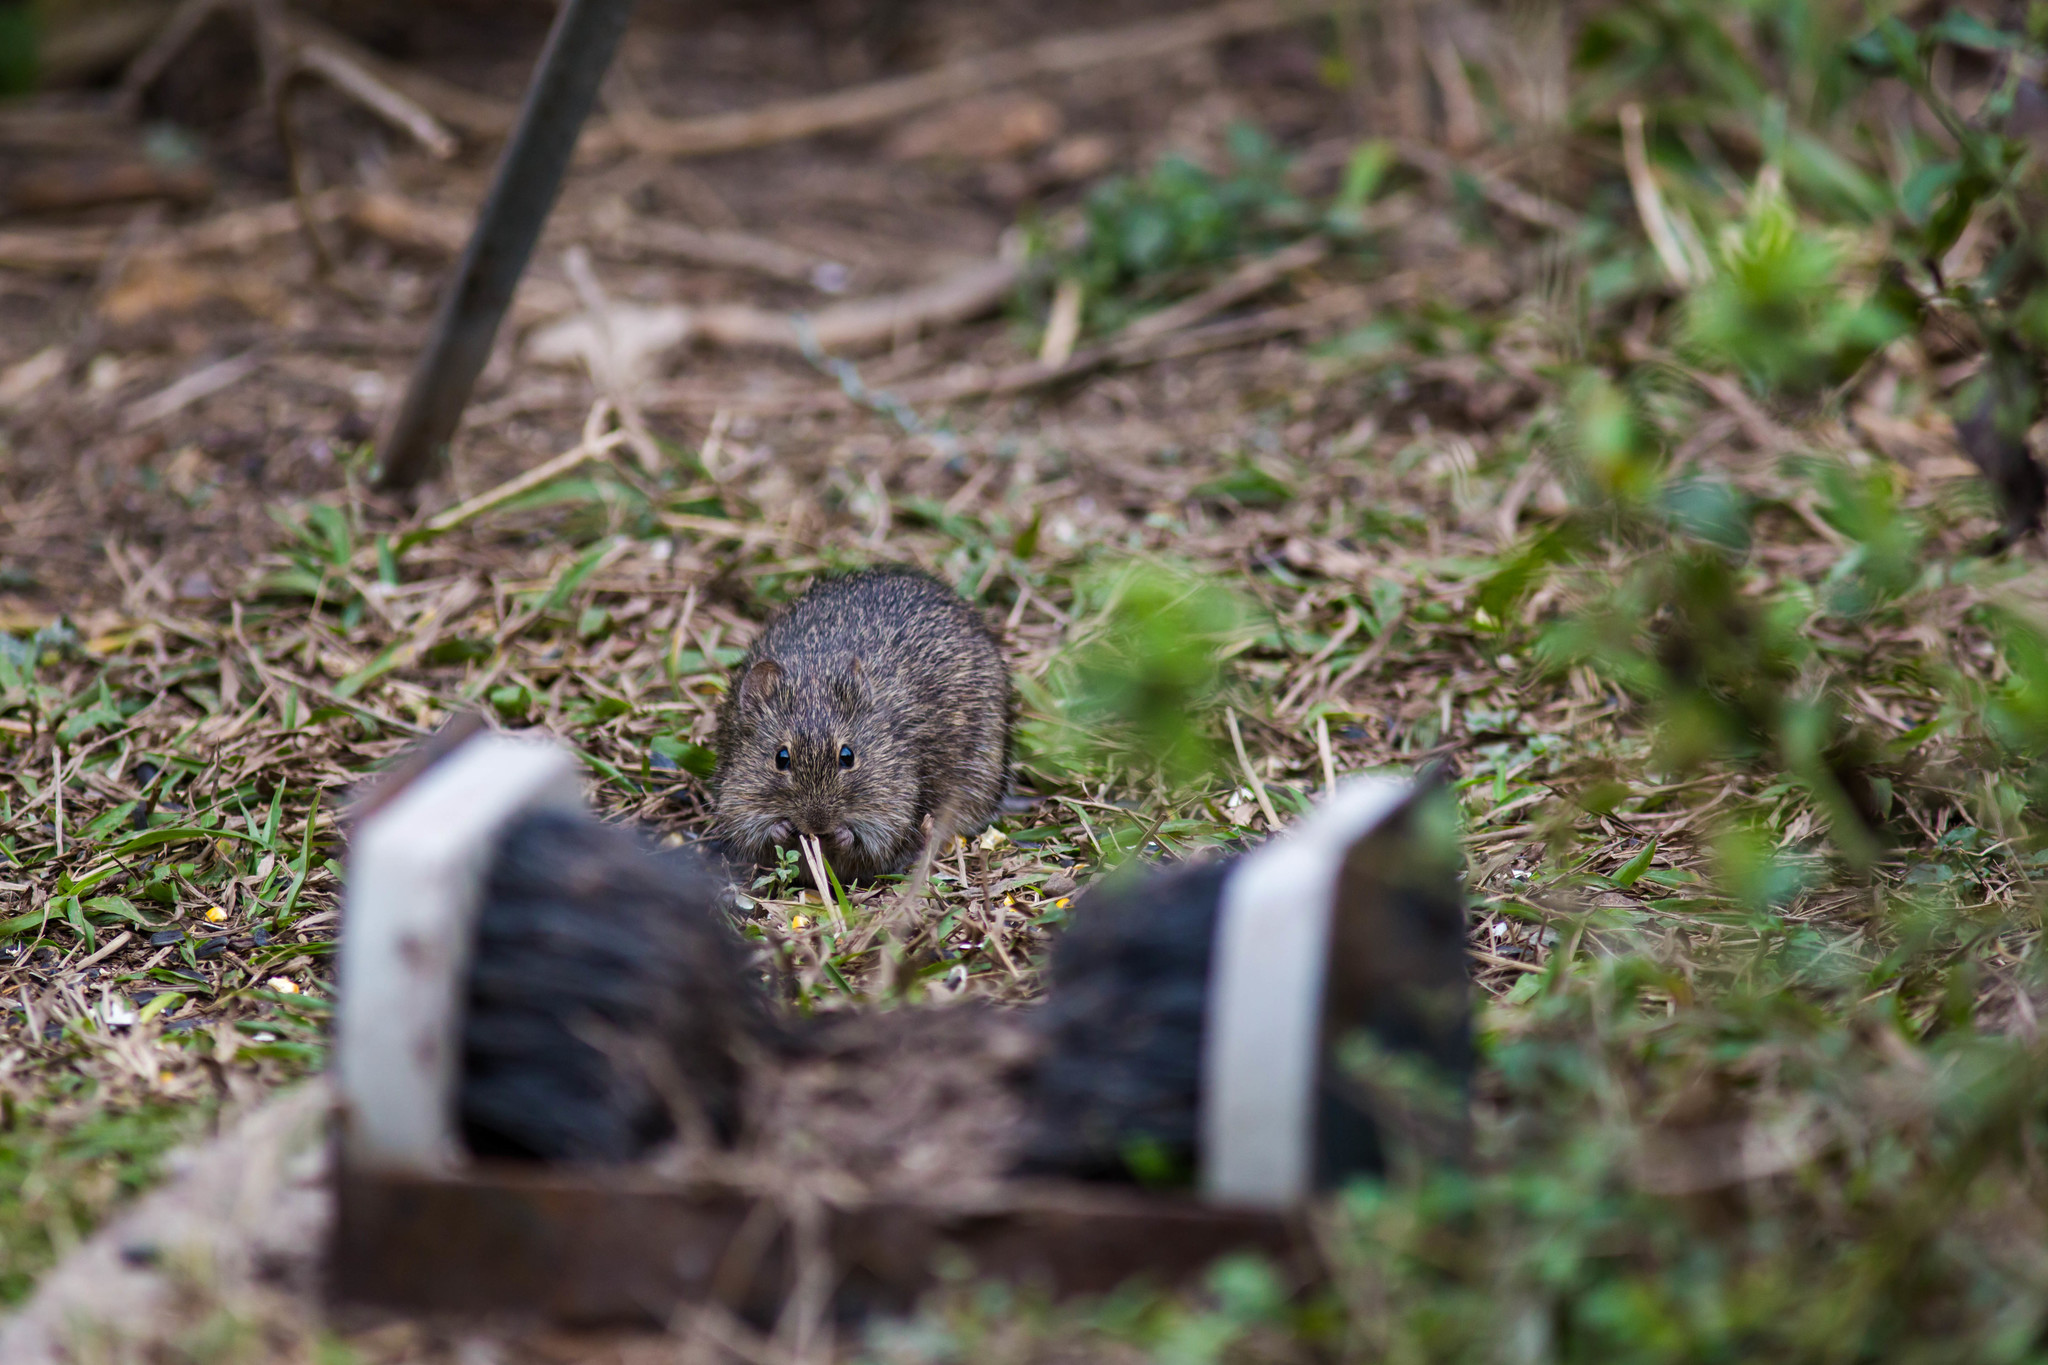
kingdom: Animalia
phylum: Chordata
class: Mammalia
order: Rodentia
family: Cricetidae
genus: Sigmodon
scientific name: Sigmodon hispidus
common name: Hispid cotton rat
